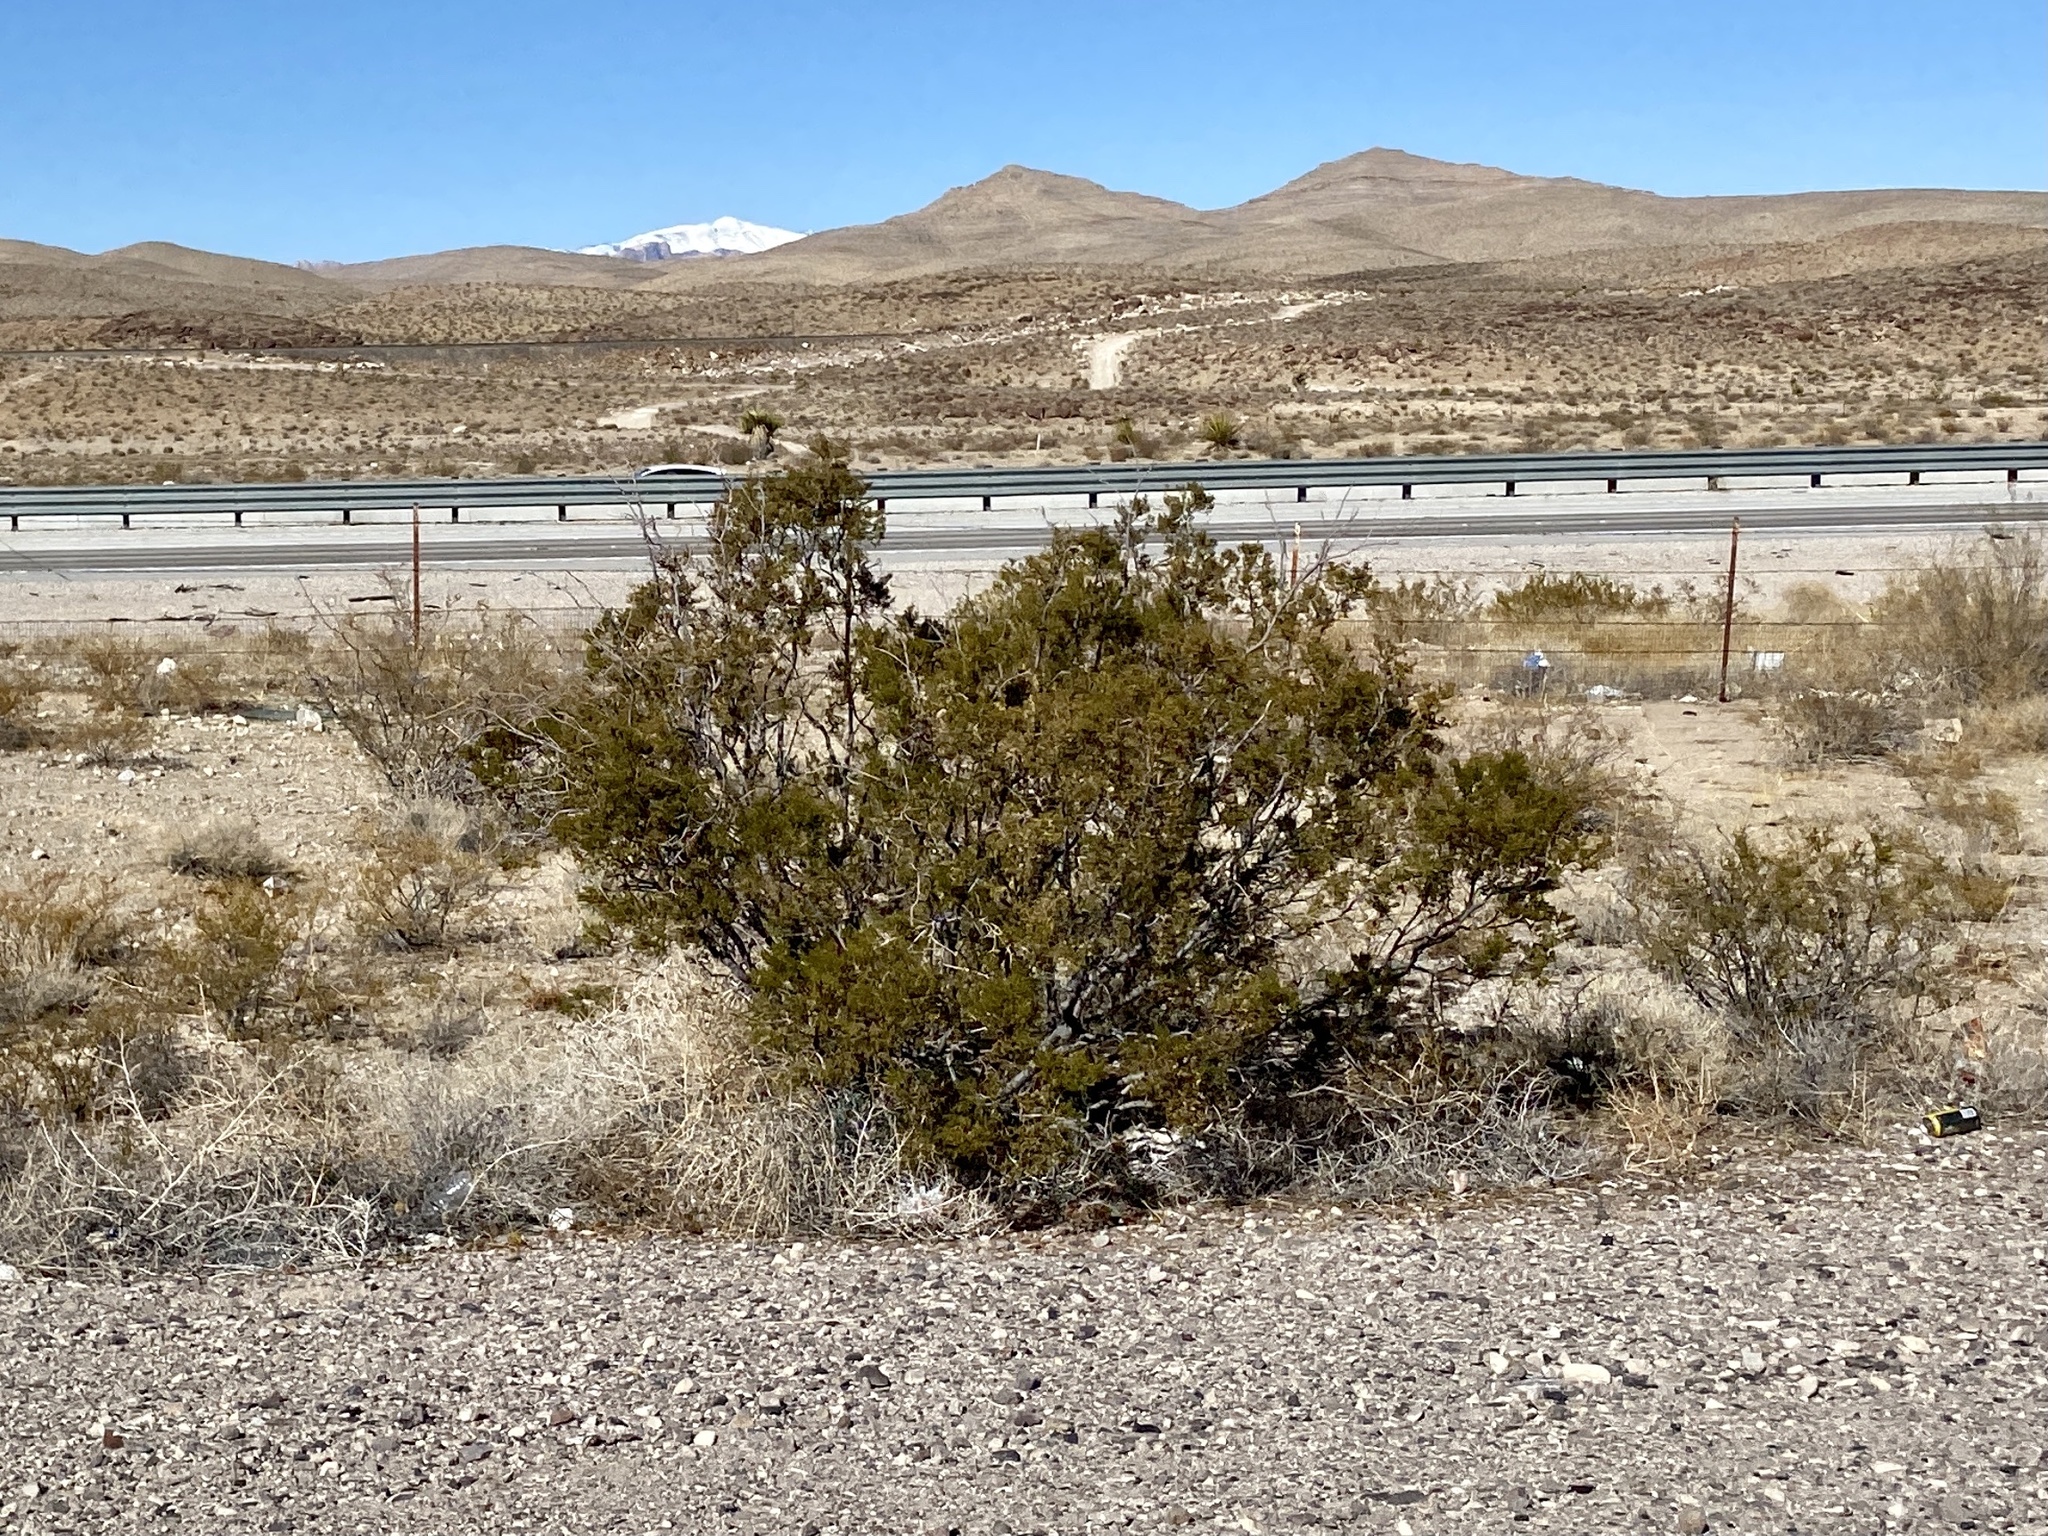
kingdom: Plantae
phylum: Tracheophyta
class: Magnoliopsida
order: Zygophyllales
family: Zygophyllaceae
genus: Larrea
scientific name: Larrea tridentata
